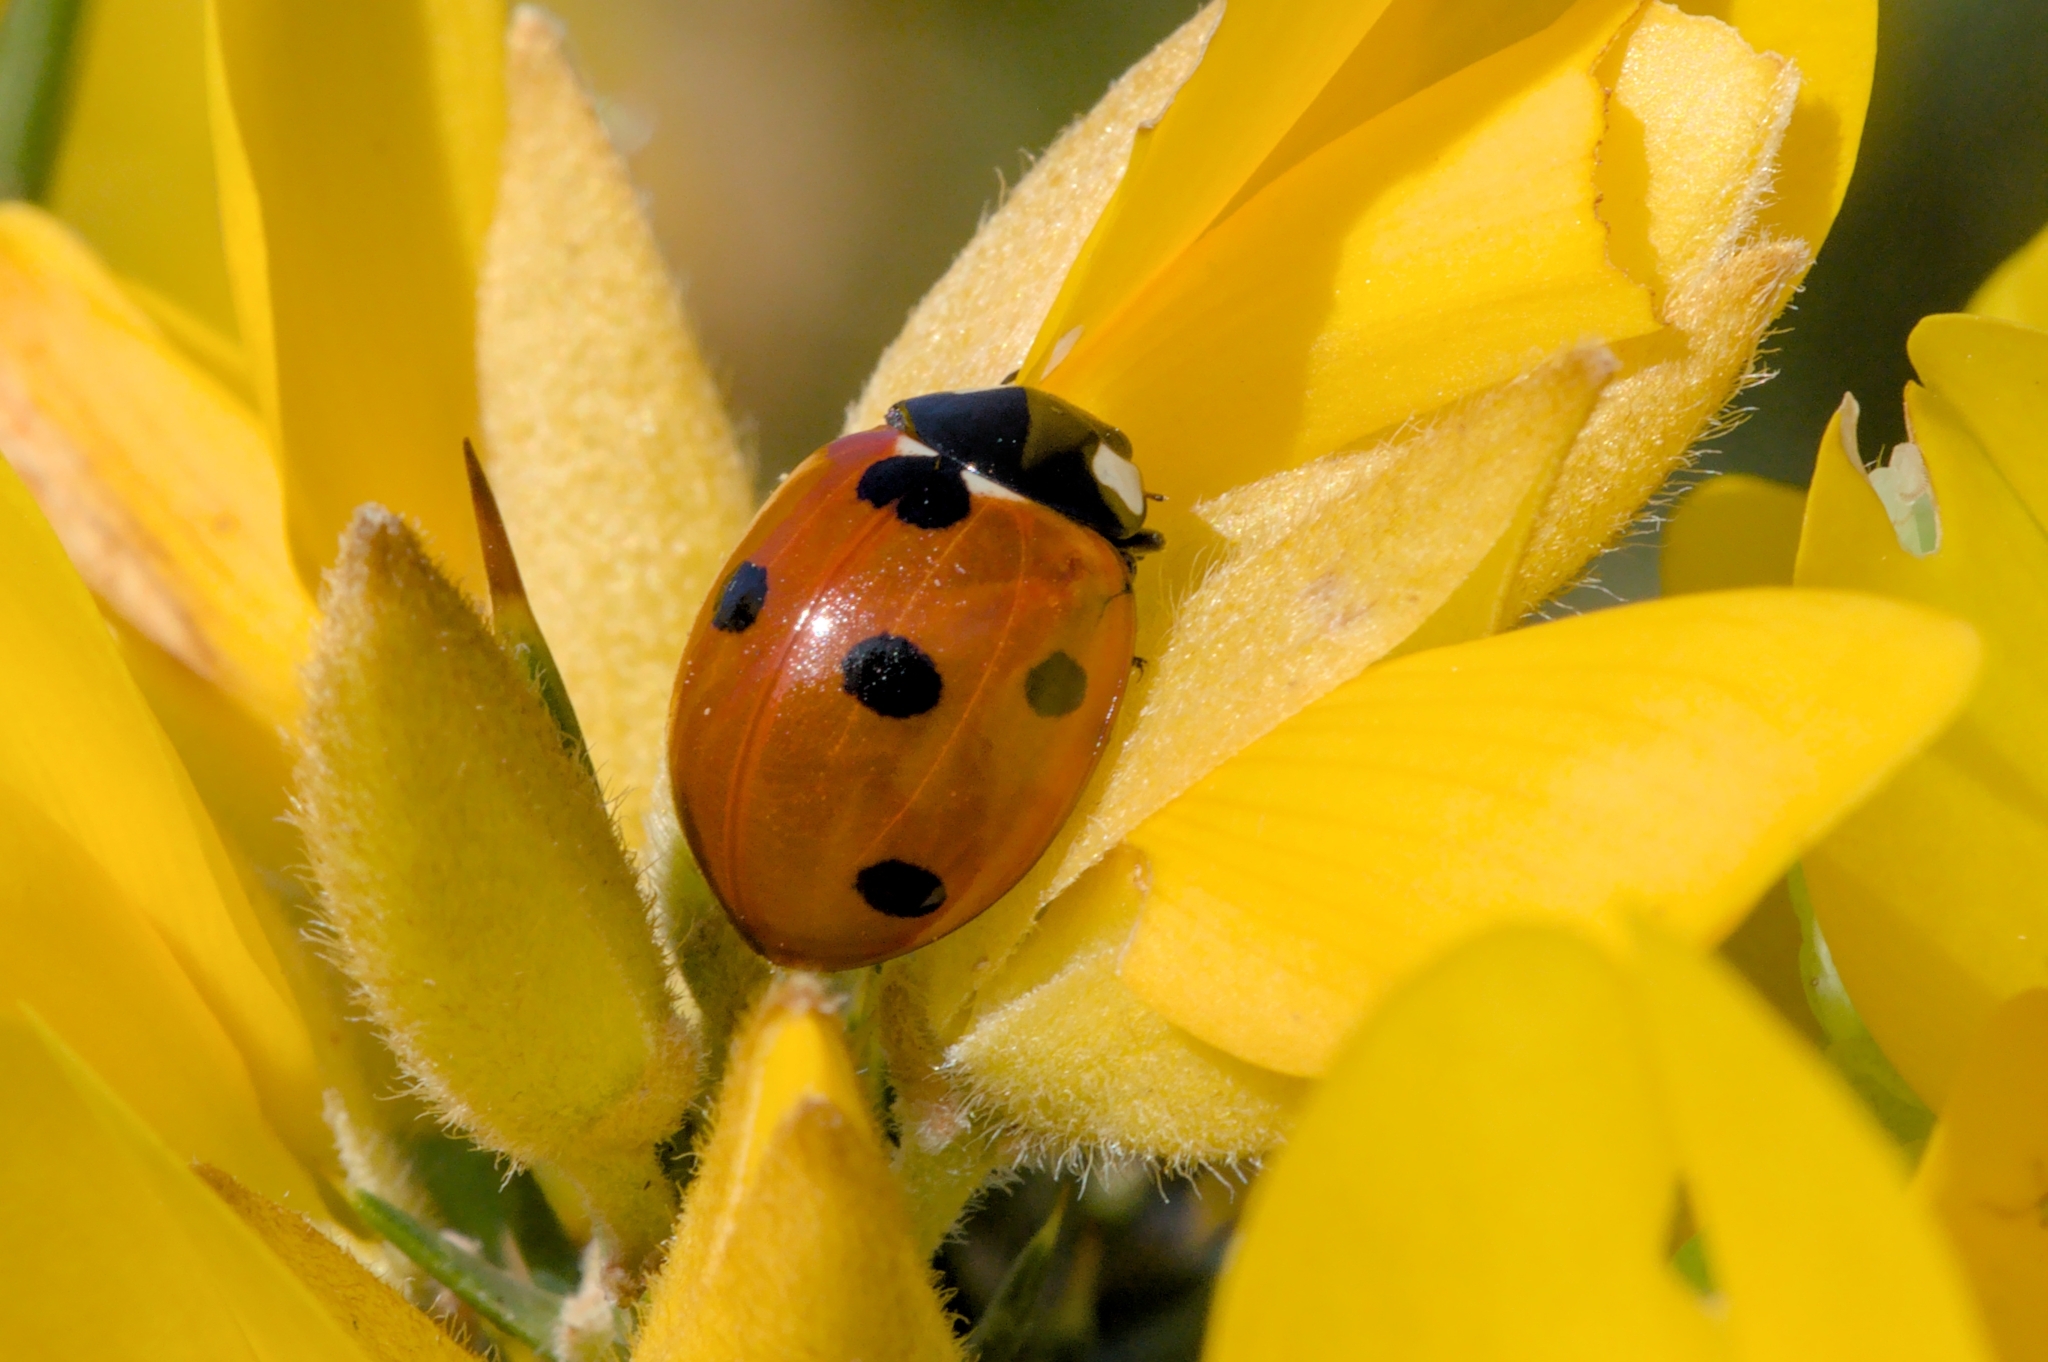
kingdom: Animalia
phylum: Arthropoda
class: Insecta
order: Coleoptera
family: Coccinellidae
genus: Coccinella
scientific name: Coccinella septempunctata
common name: Sevenspotted lady beetle
